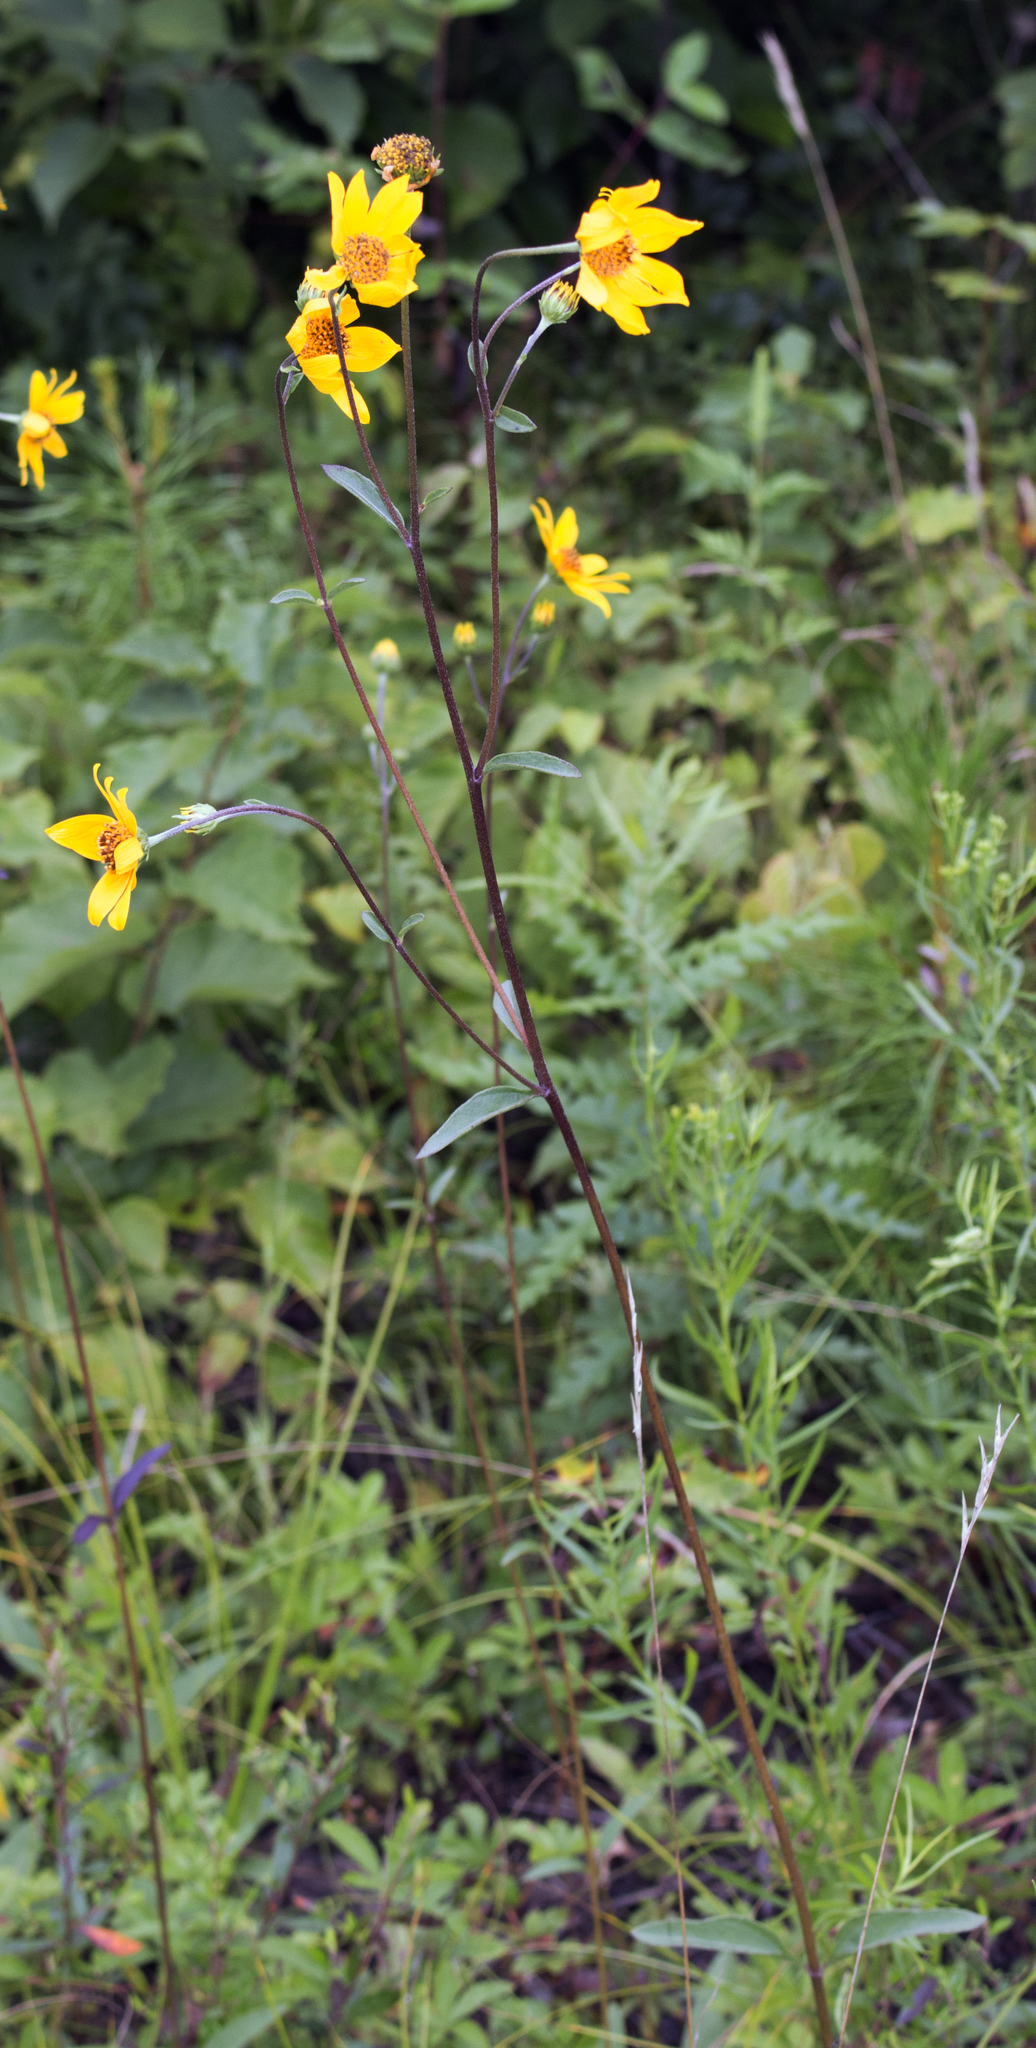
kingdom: Plantae
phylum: Tracheophyta
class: Magnoliopsida
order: Asterales
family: Asteraceae
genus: Helianthus
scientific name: Helianthus occidentalis
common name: Western sunflower
